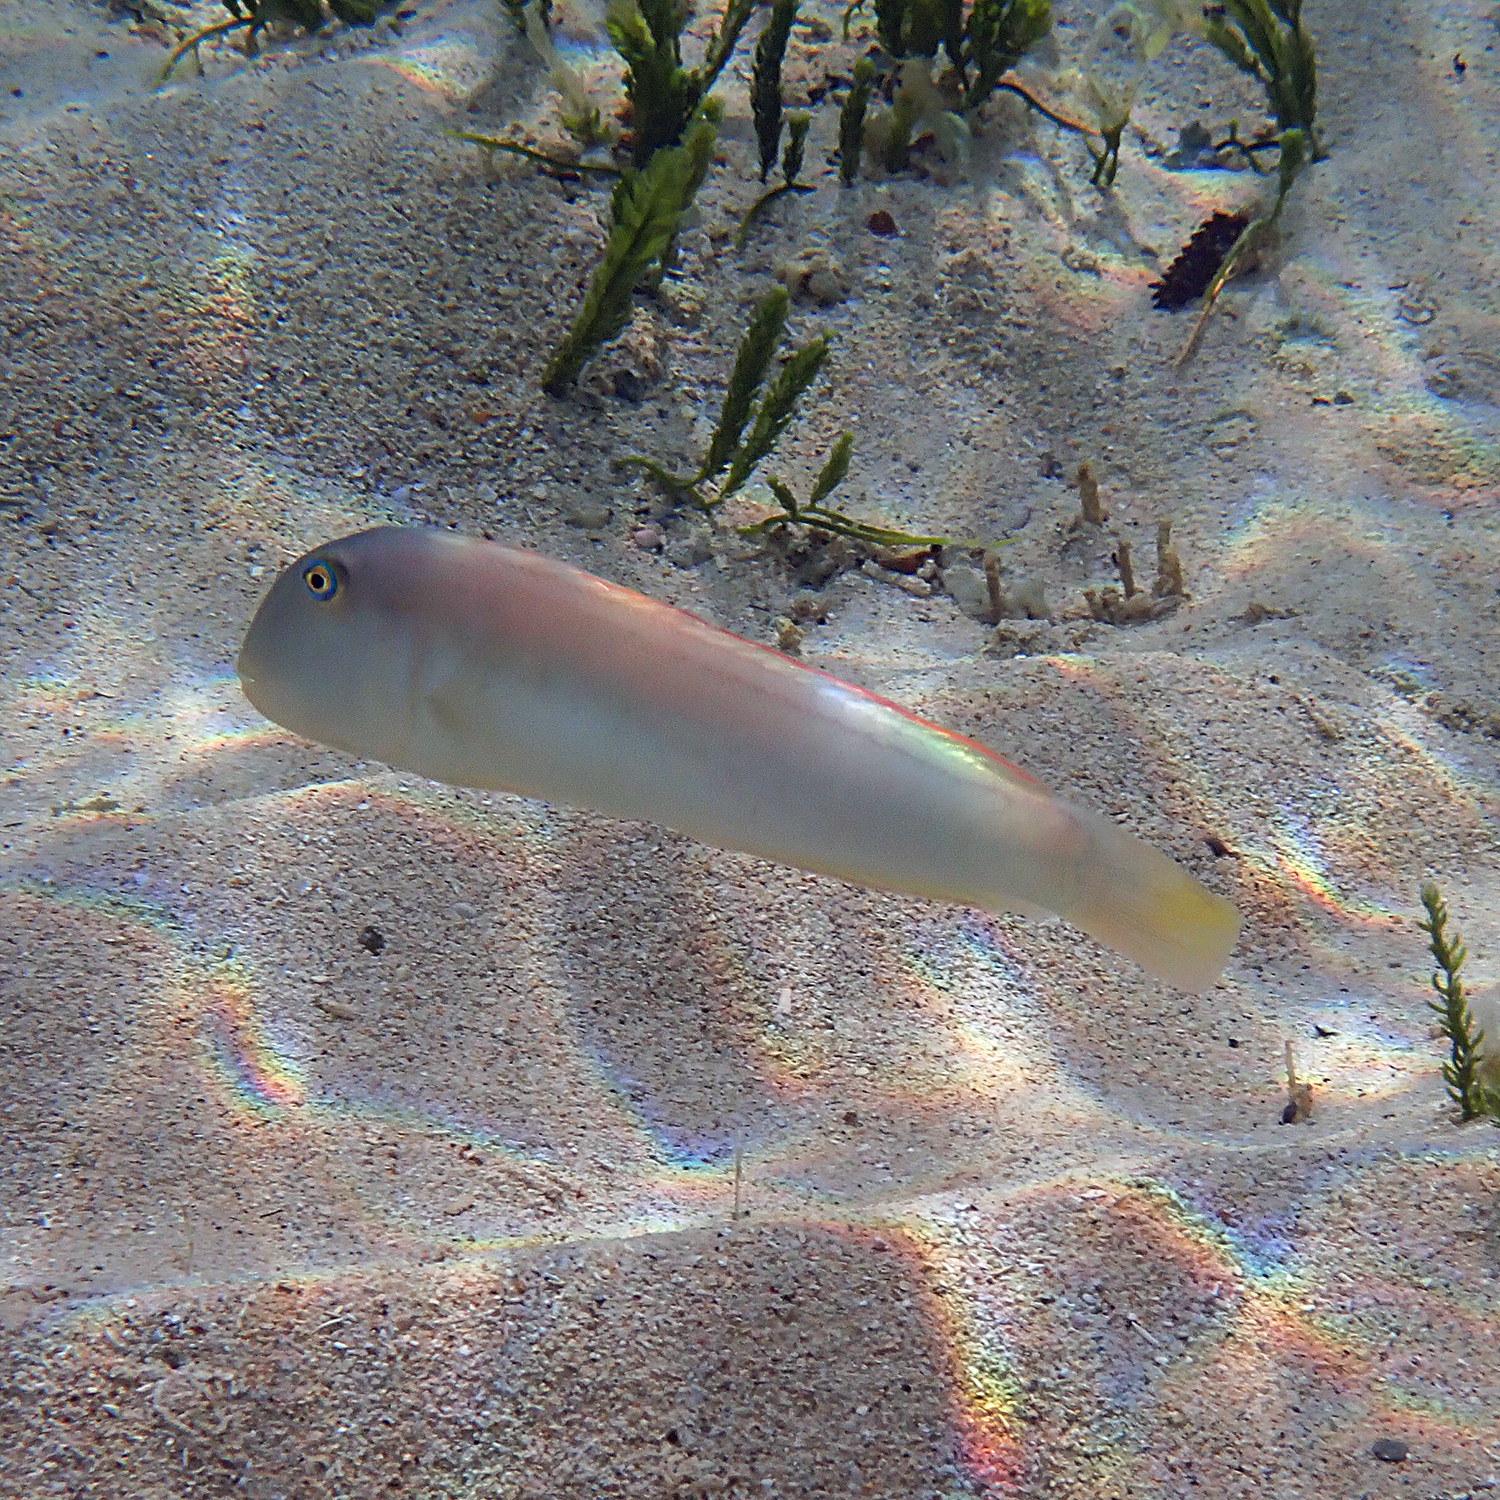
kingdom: Animalia
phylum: Chordata
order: Perciformes
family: Labridae
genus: Cymolutes
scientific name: Cymolutes praetextatus
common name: Knife razorfish
